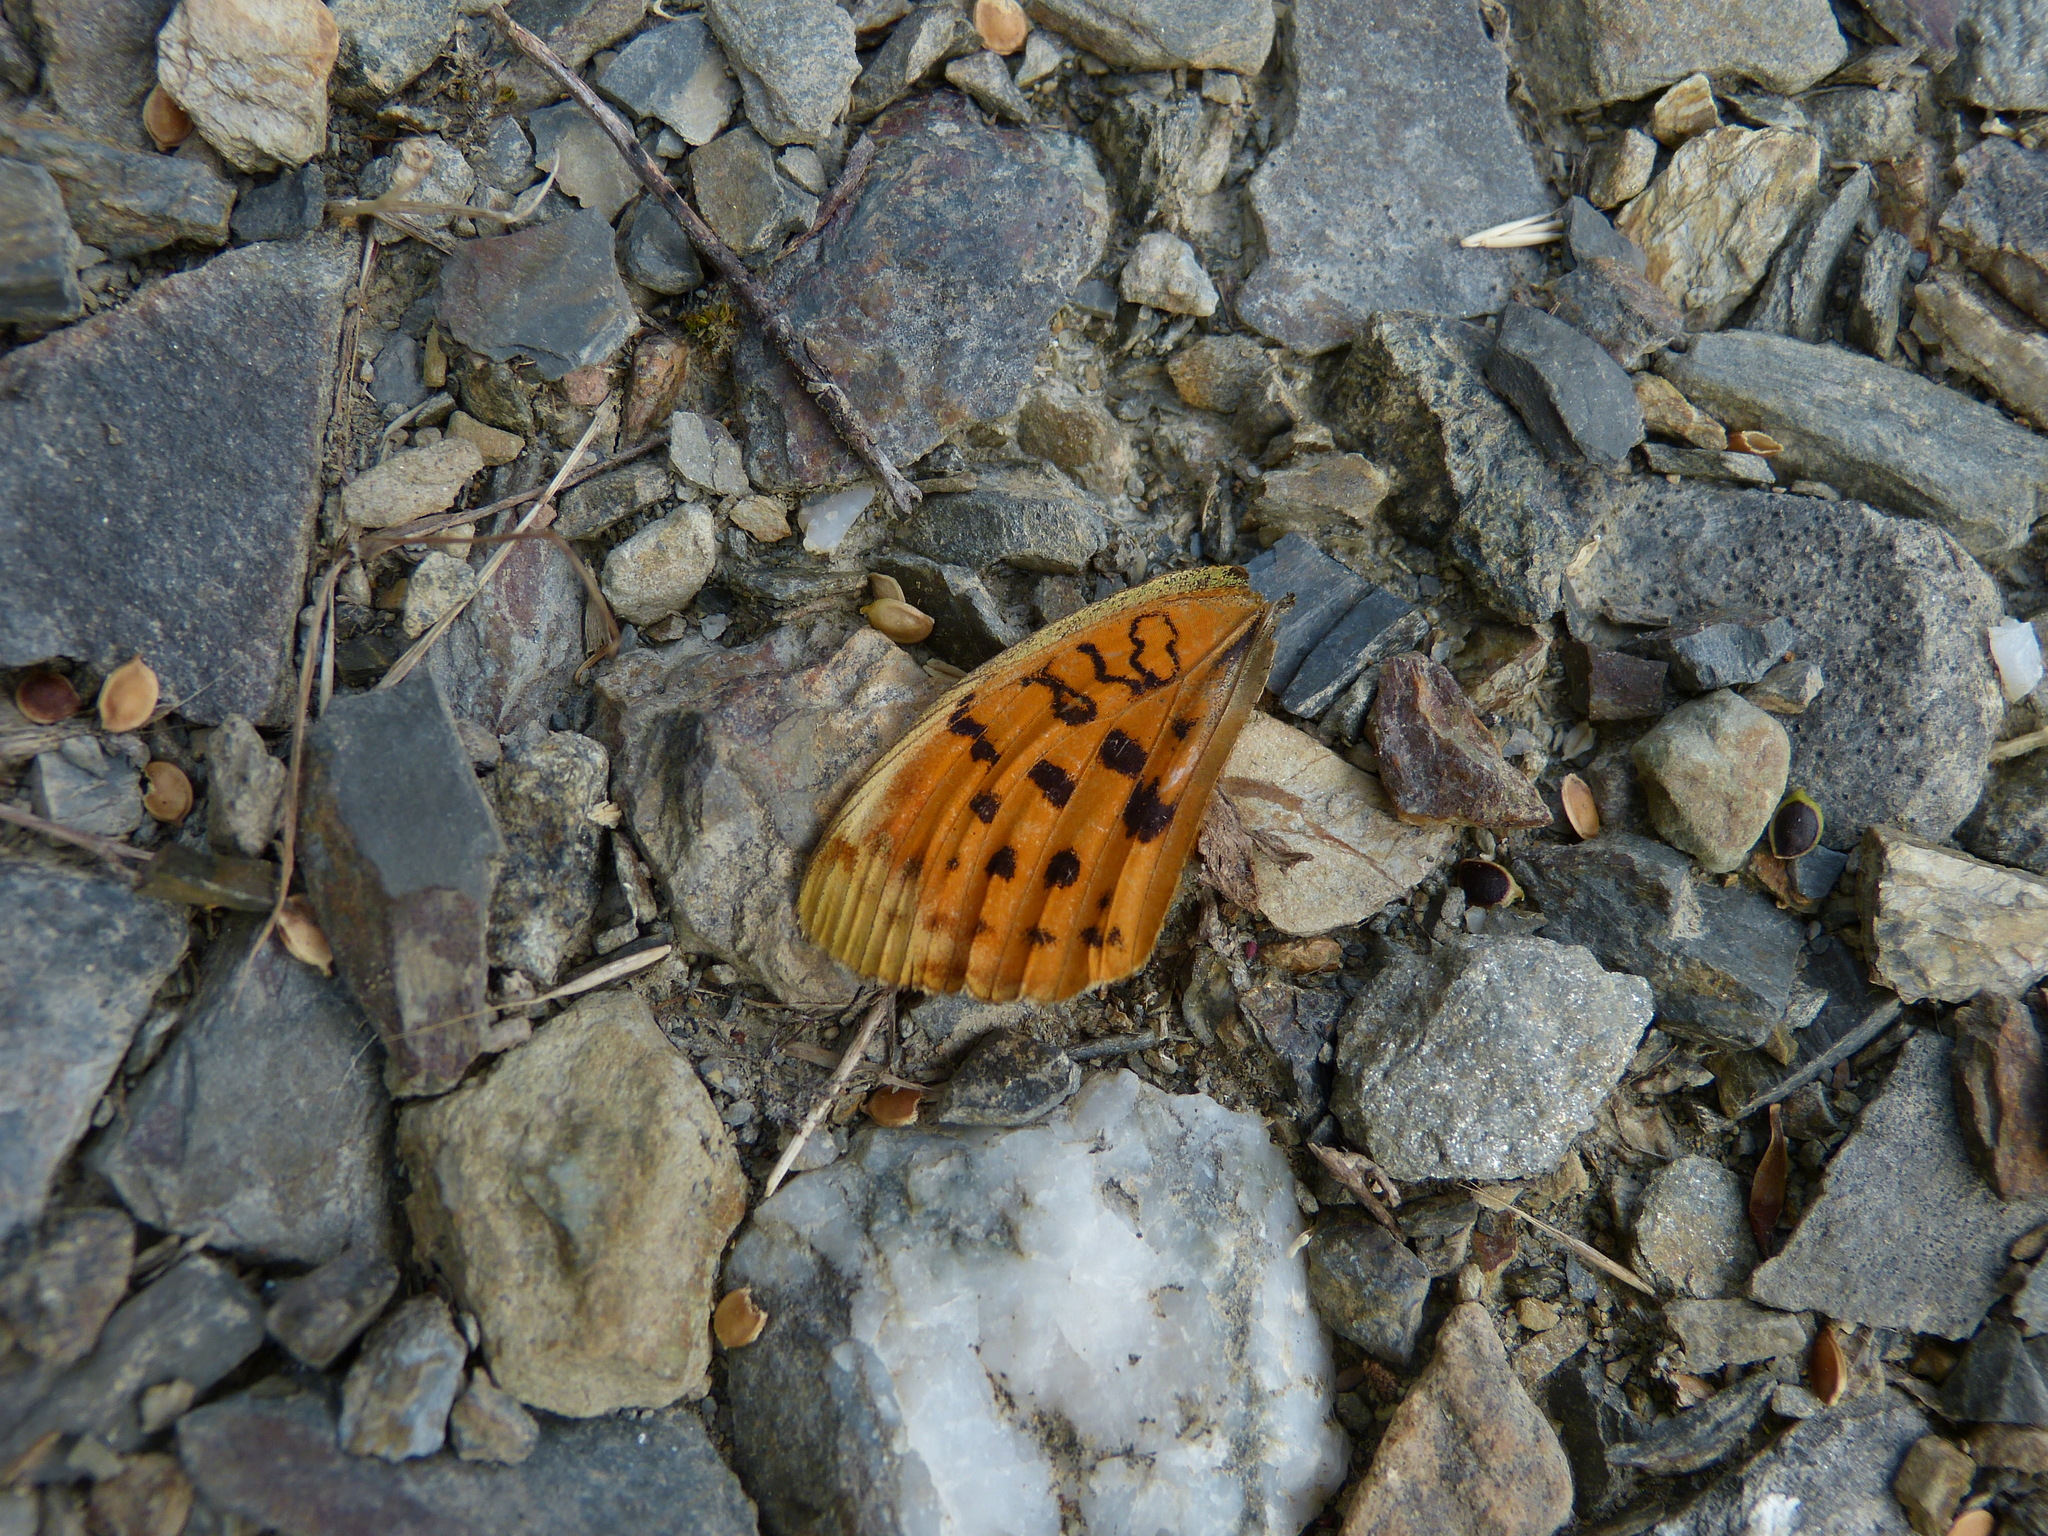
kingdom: Animalia
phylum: Arthropoda
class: Insecta
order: Lepidoptera
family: Nymphalidae
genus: Brenthis
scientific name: Brenthis daphne
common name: Marbled fritillary
